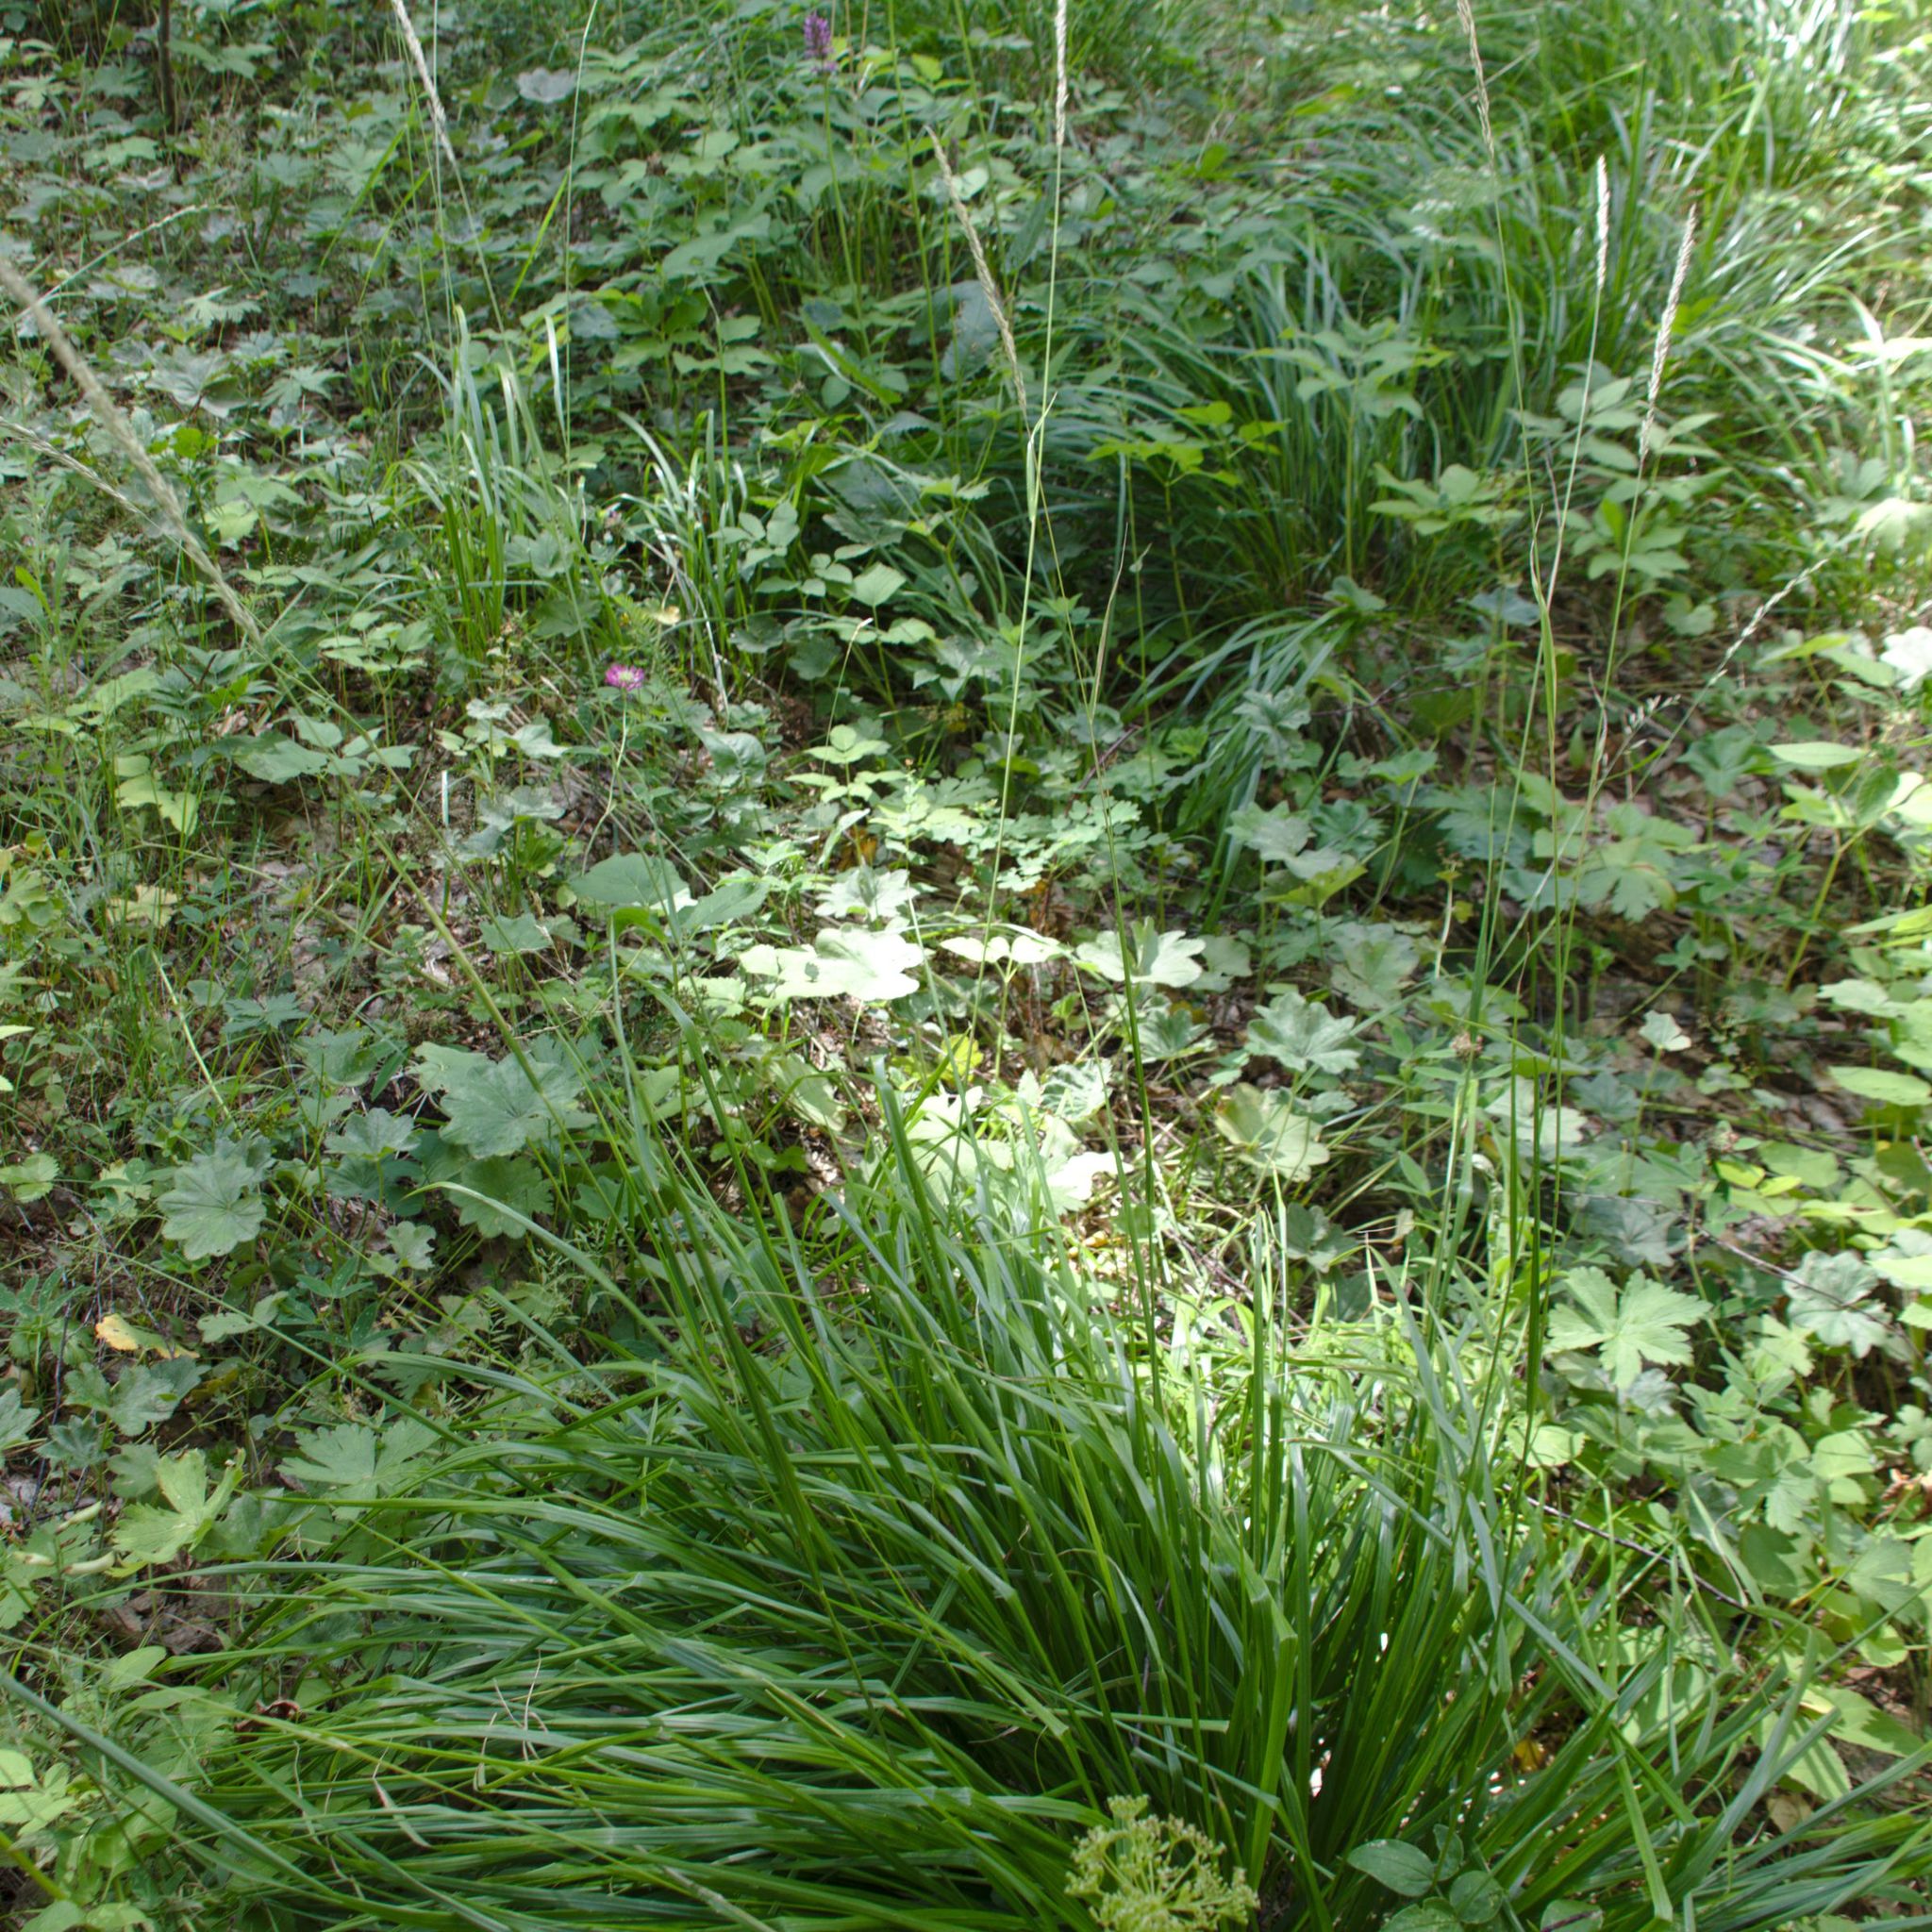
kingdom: Plantae
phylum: Tracheophyta
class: Liliopsida
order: Poales
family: Poaceae
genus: Calamagrostis
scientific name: Calamagrostis arundinacea
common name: Metskastik
